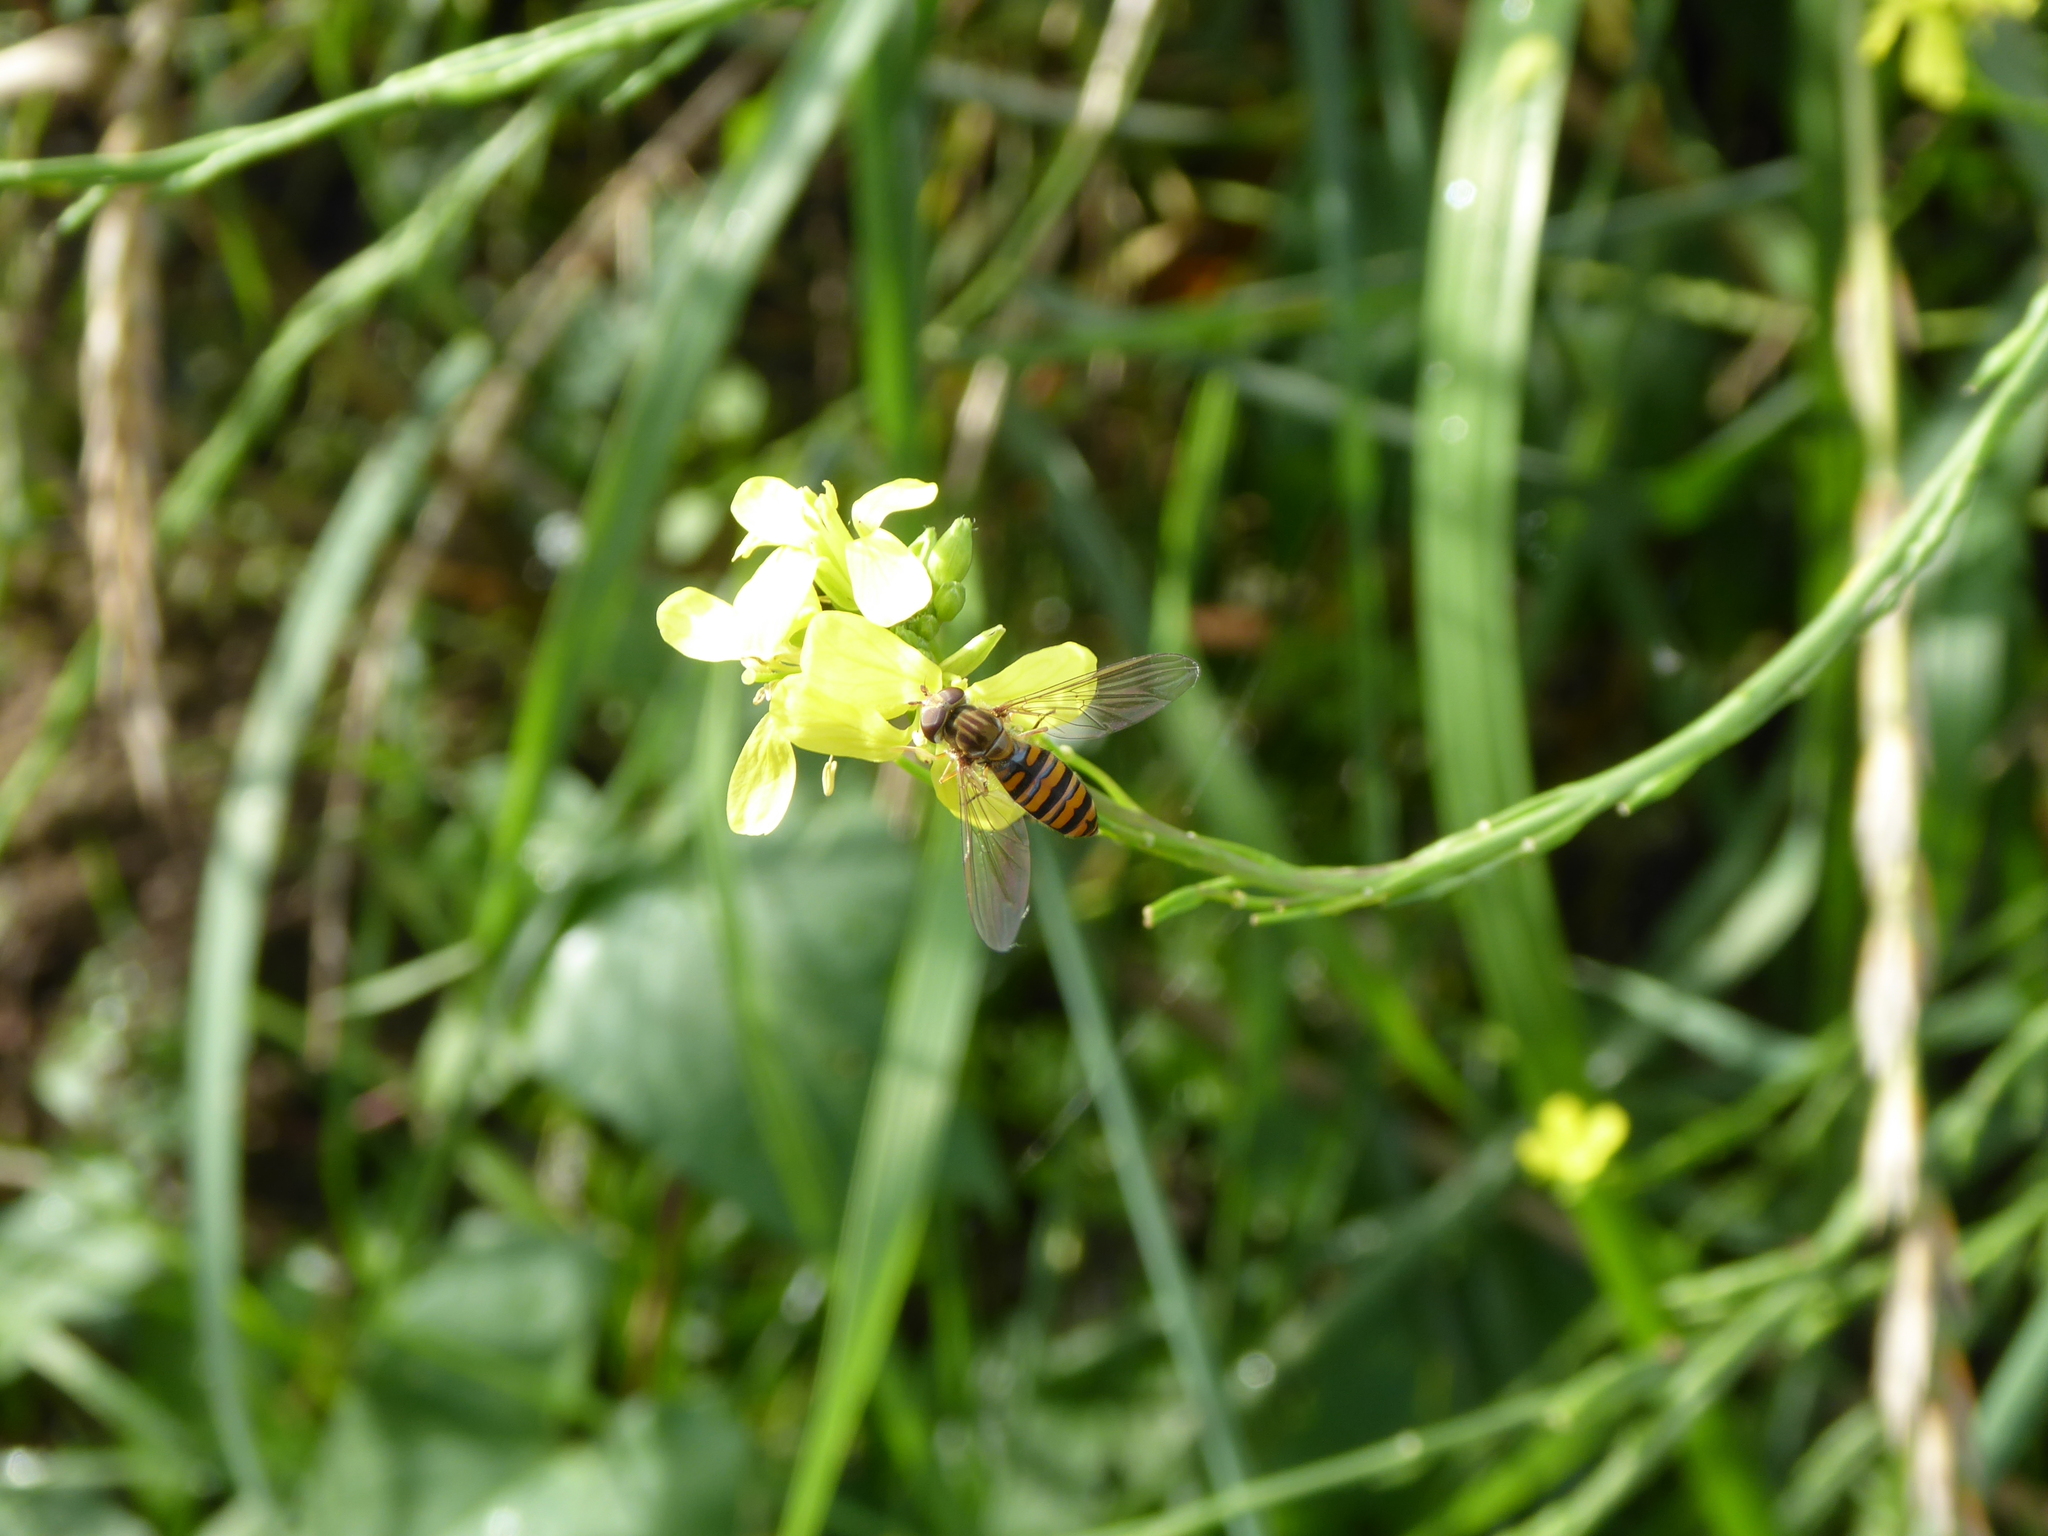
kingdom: Animalia
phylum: Arthropoda
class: Insecta
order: Diptera
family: Syrphidae
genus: Episyrphus
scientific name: Episyrphus balteatus
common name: Marmalade hoverfly
